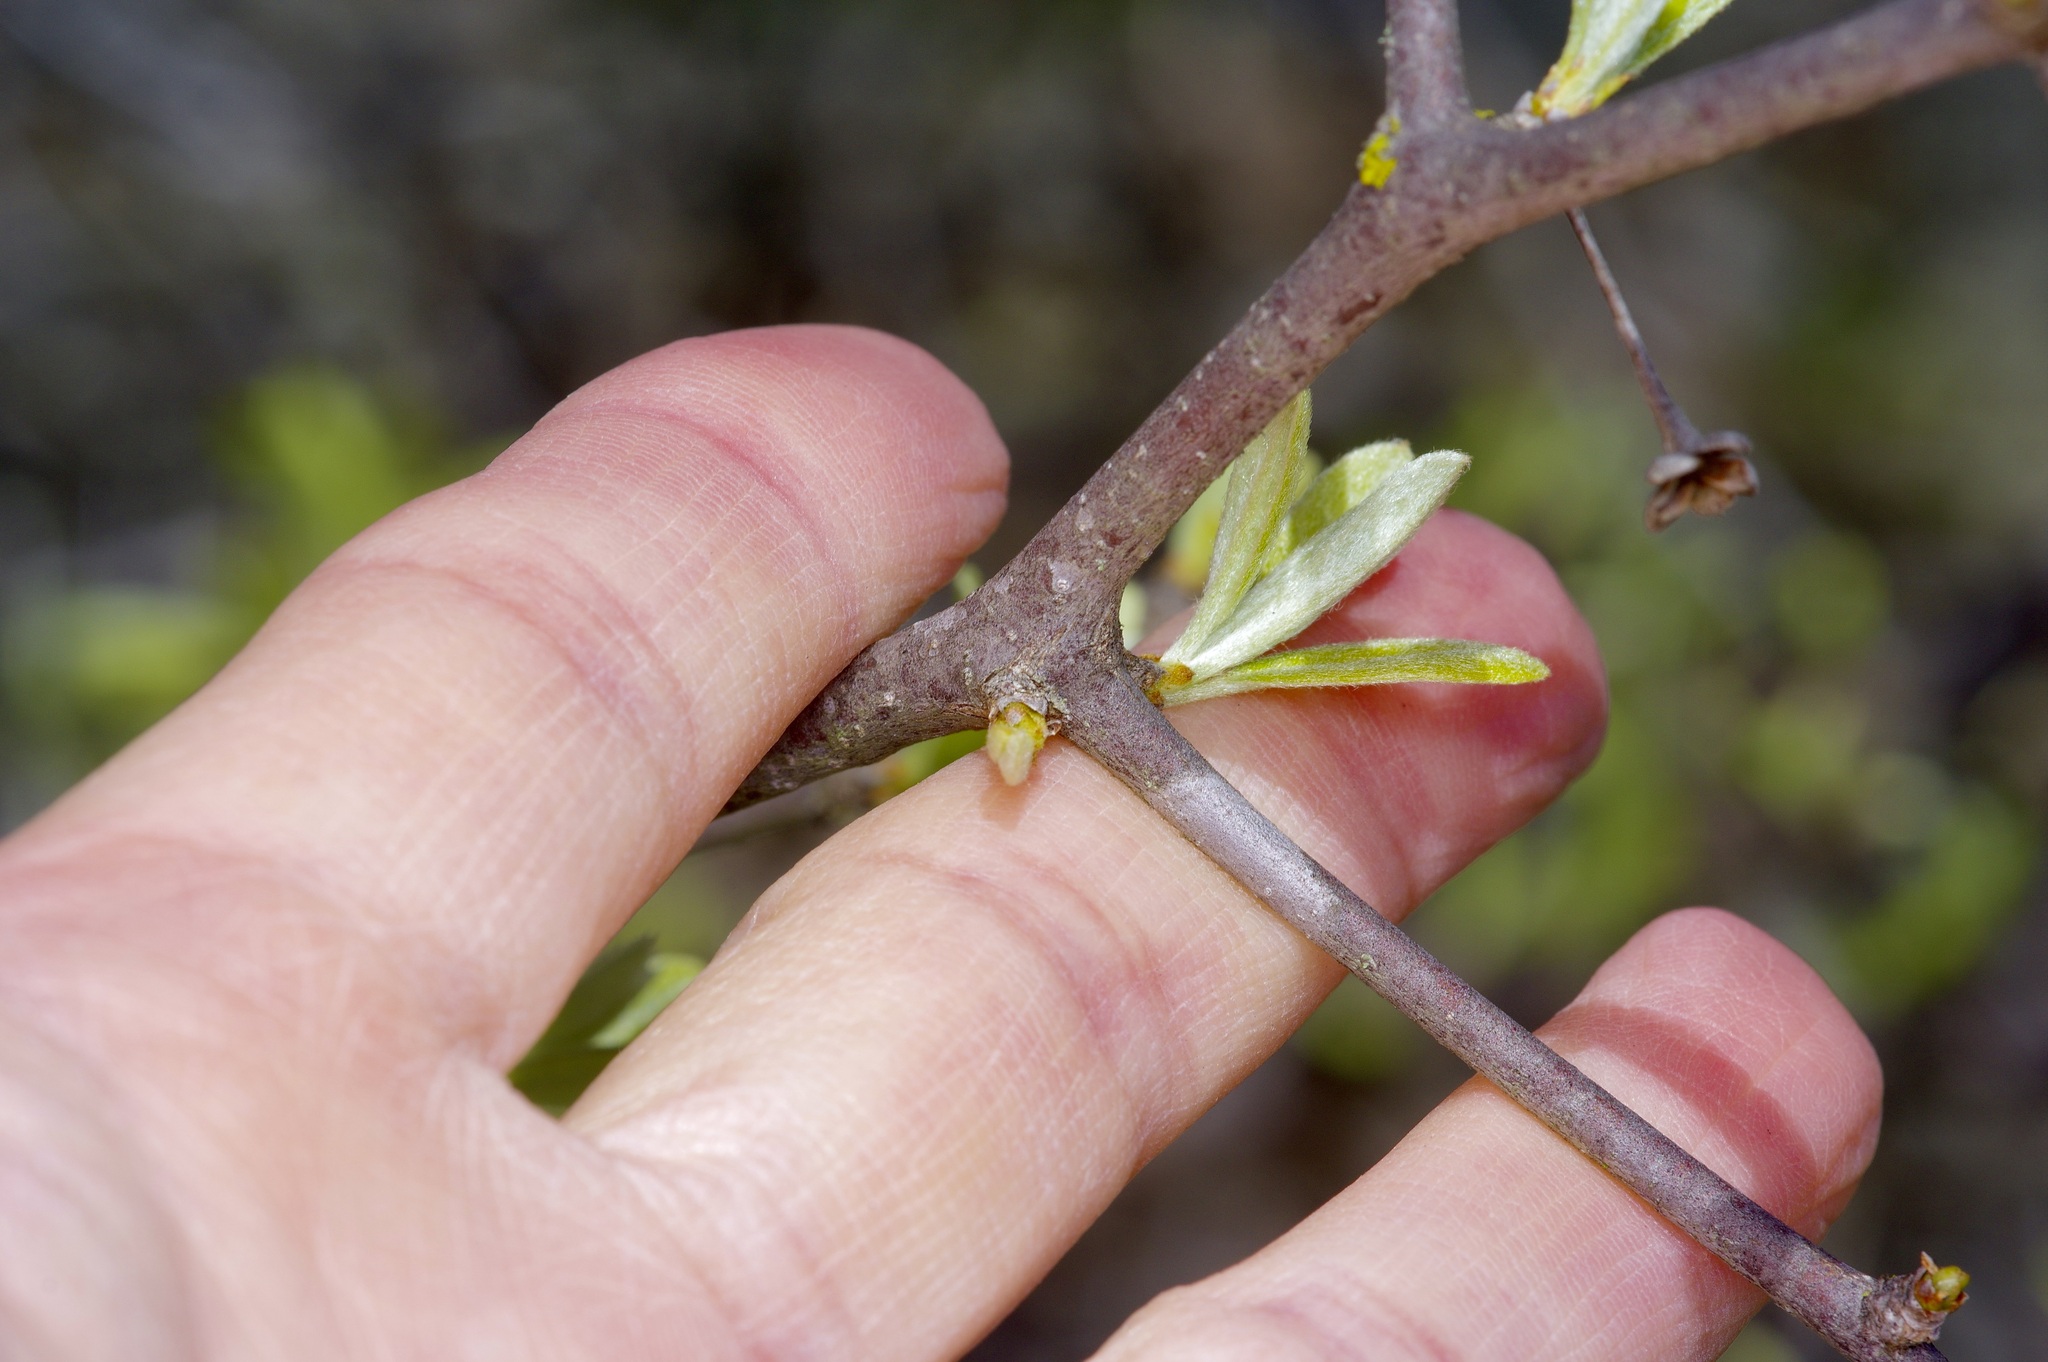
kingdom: Plantae
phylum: Tracheophyta
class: Magnoliopsida
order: Ericales
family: Sapotaceae
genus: Sideroxylon
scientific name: Sideroxylon lanuginosum
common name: Chittamwood
